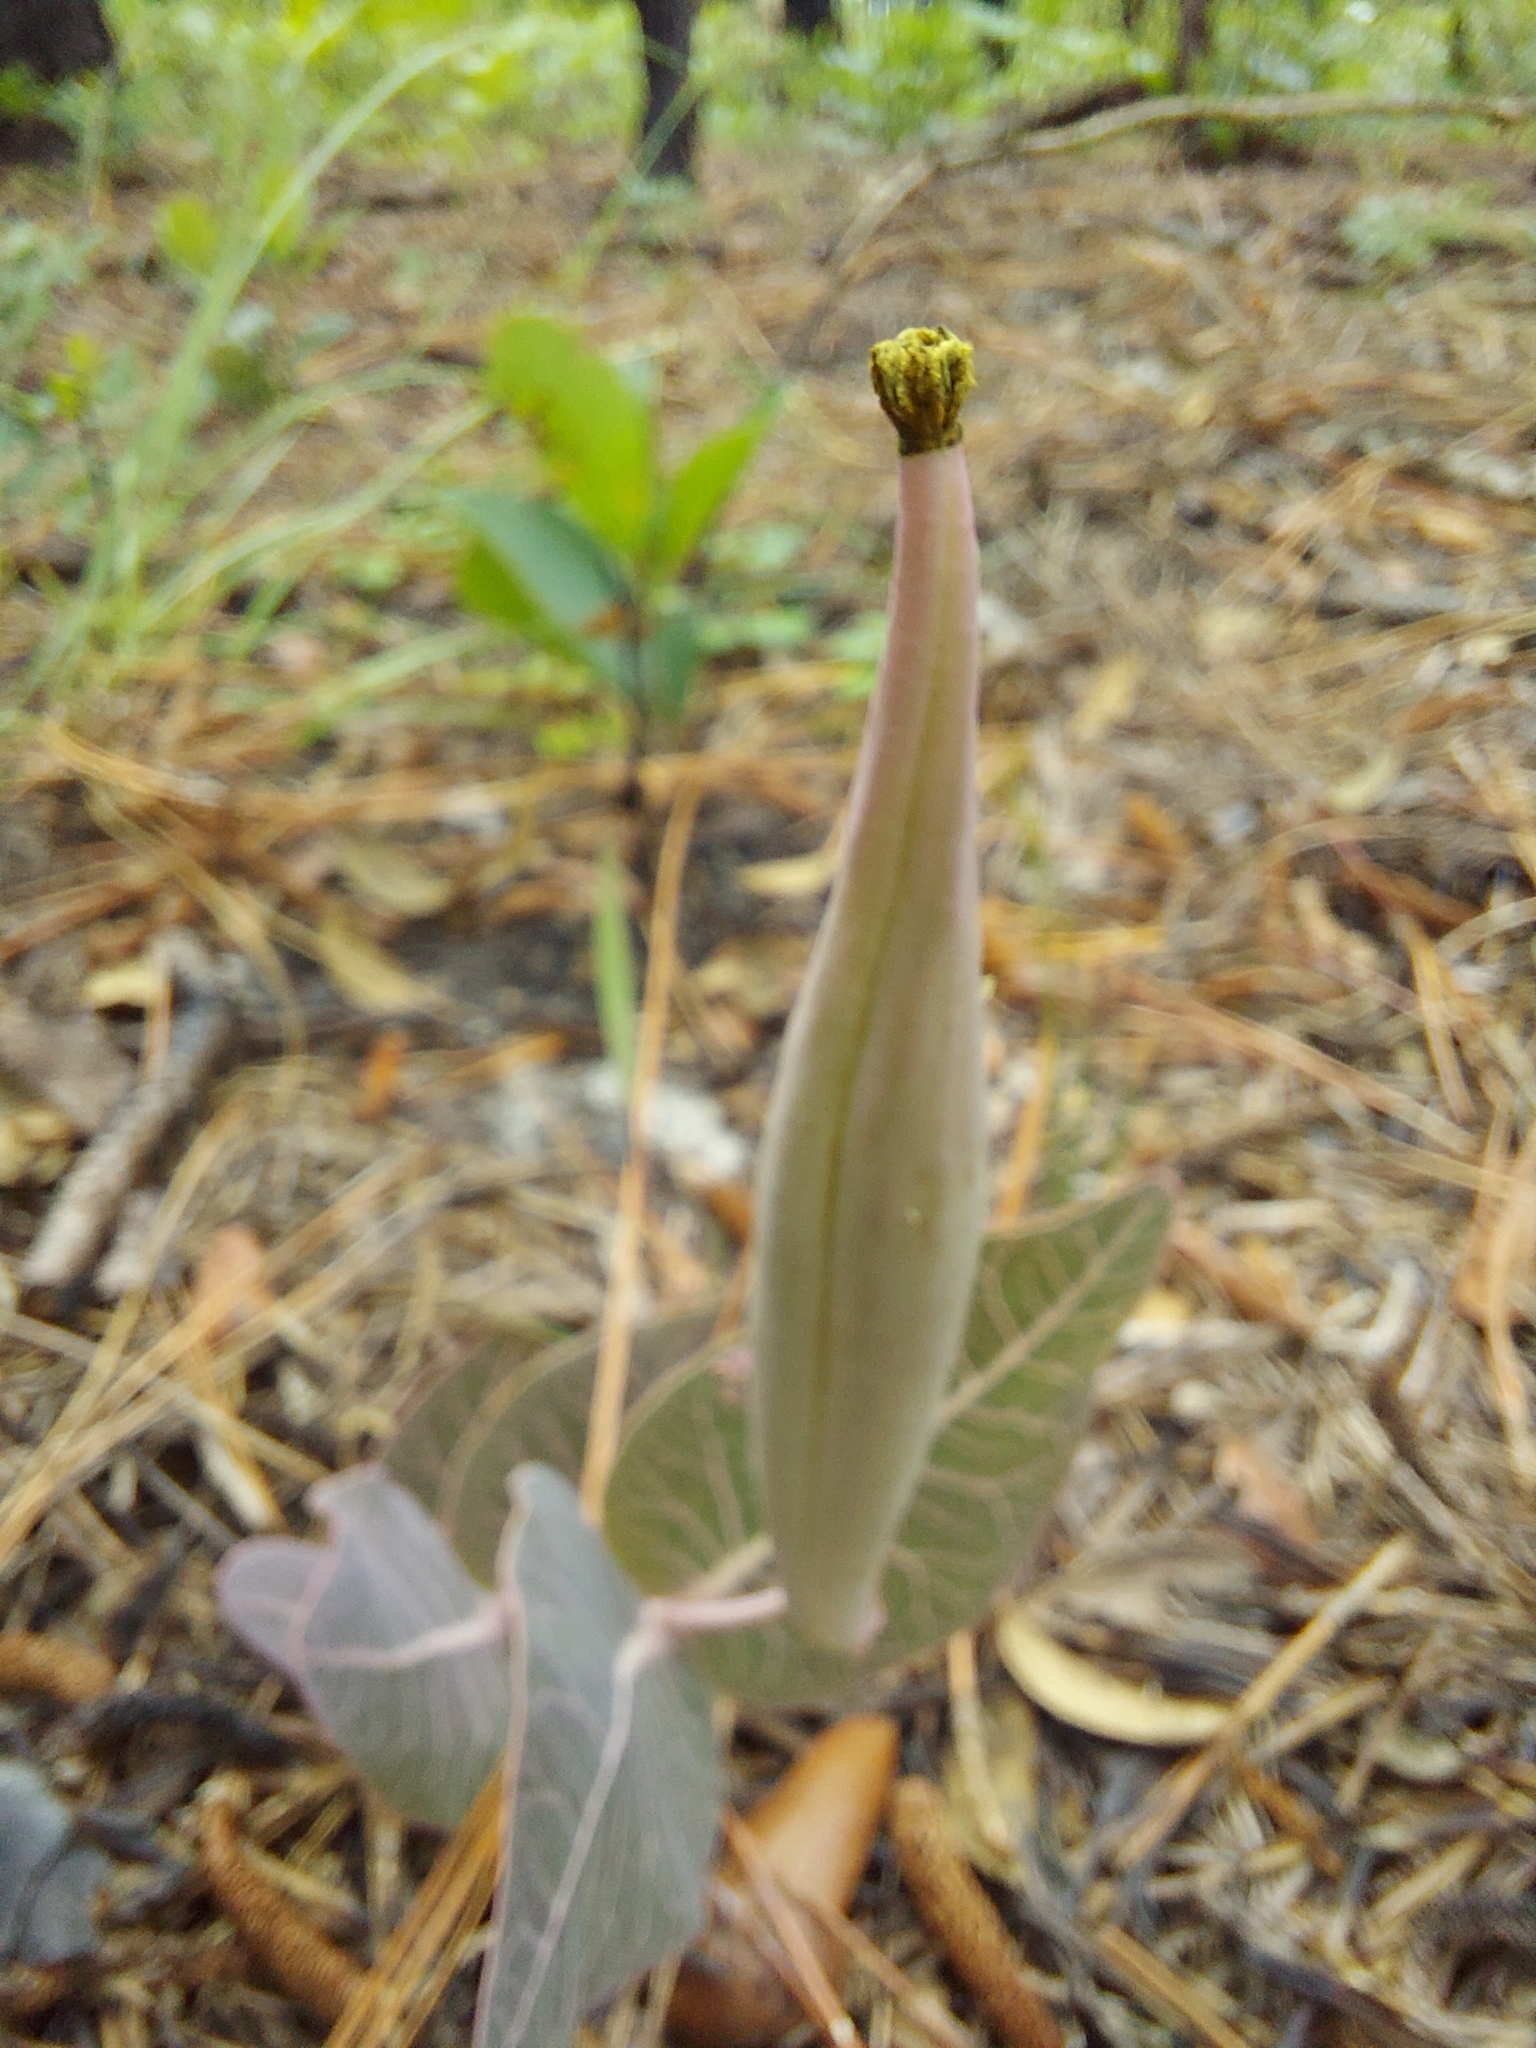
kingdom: Plantae
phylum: Tracheophyta
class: Magnoliopsida
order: Gentianales
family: Apocynaceae
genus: Asclepias
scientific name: Asclepias humistrata
